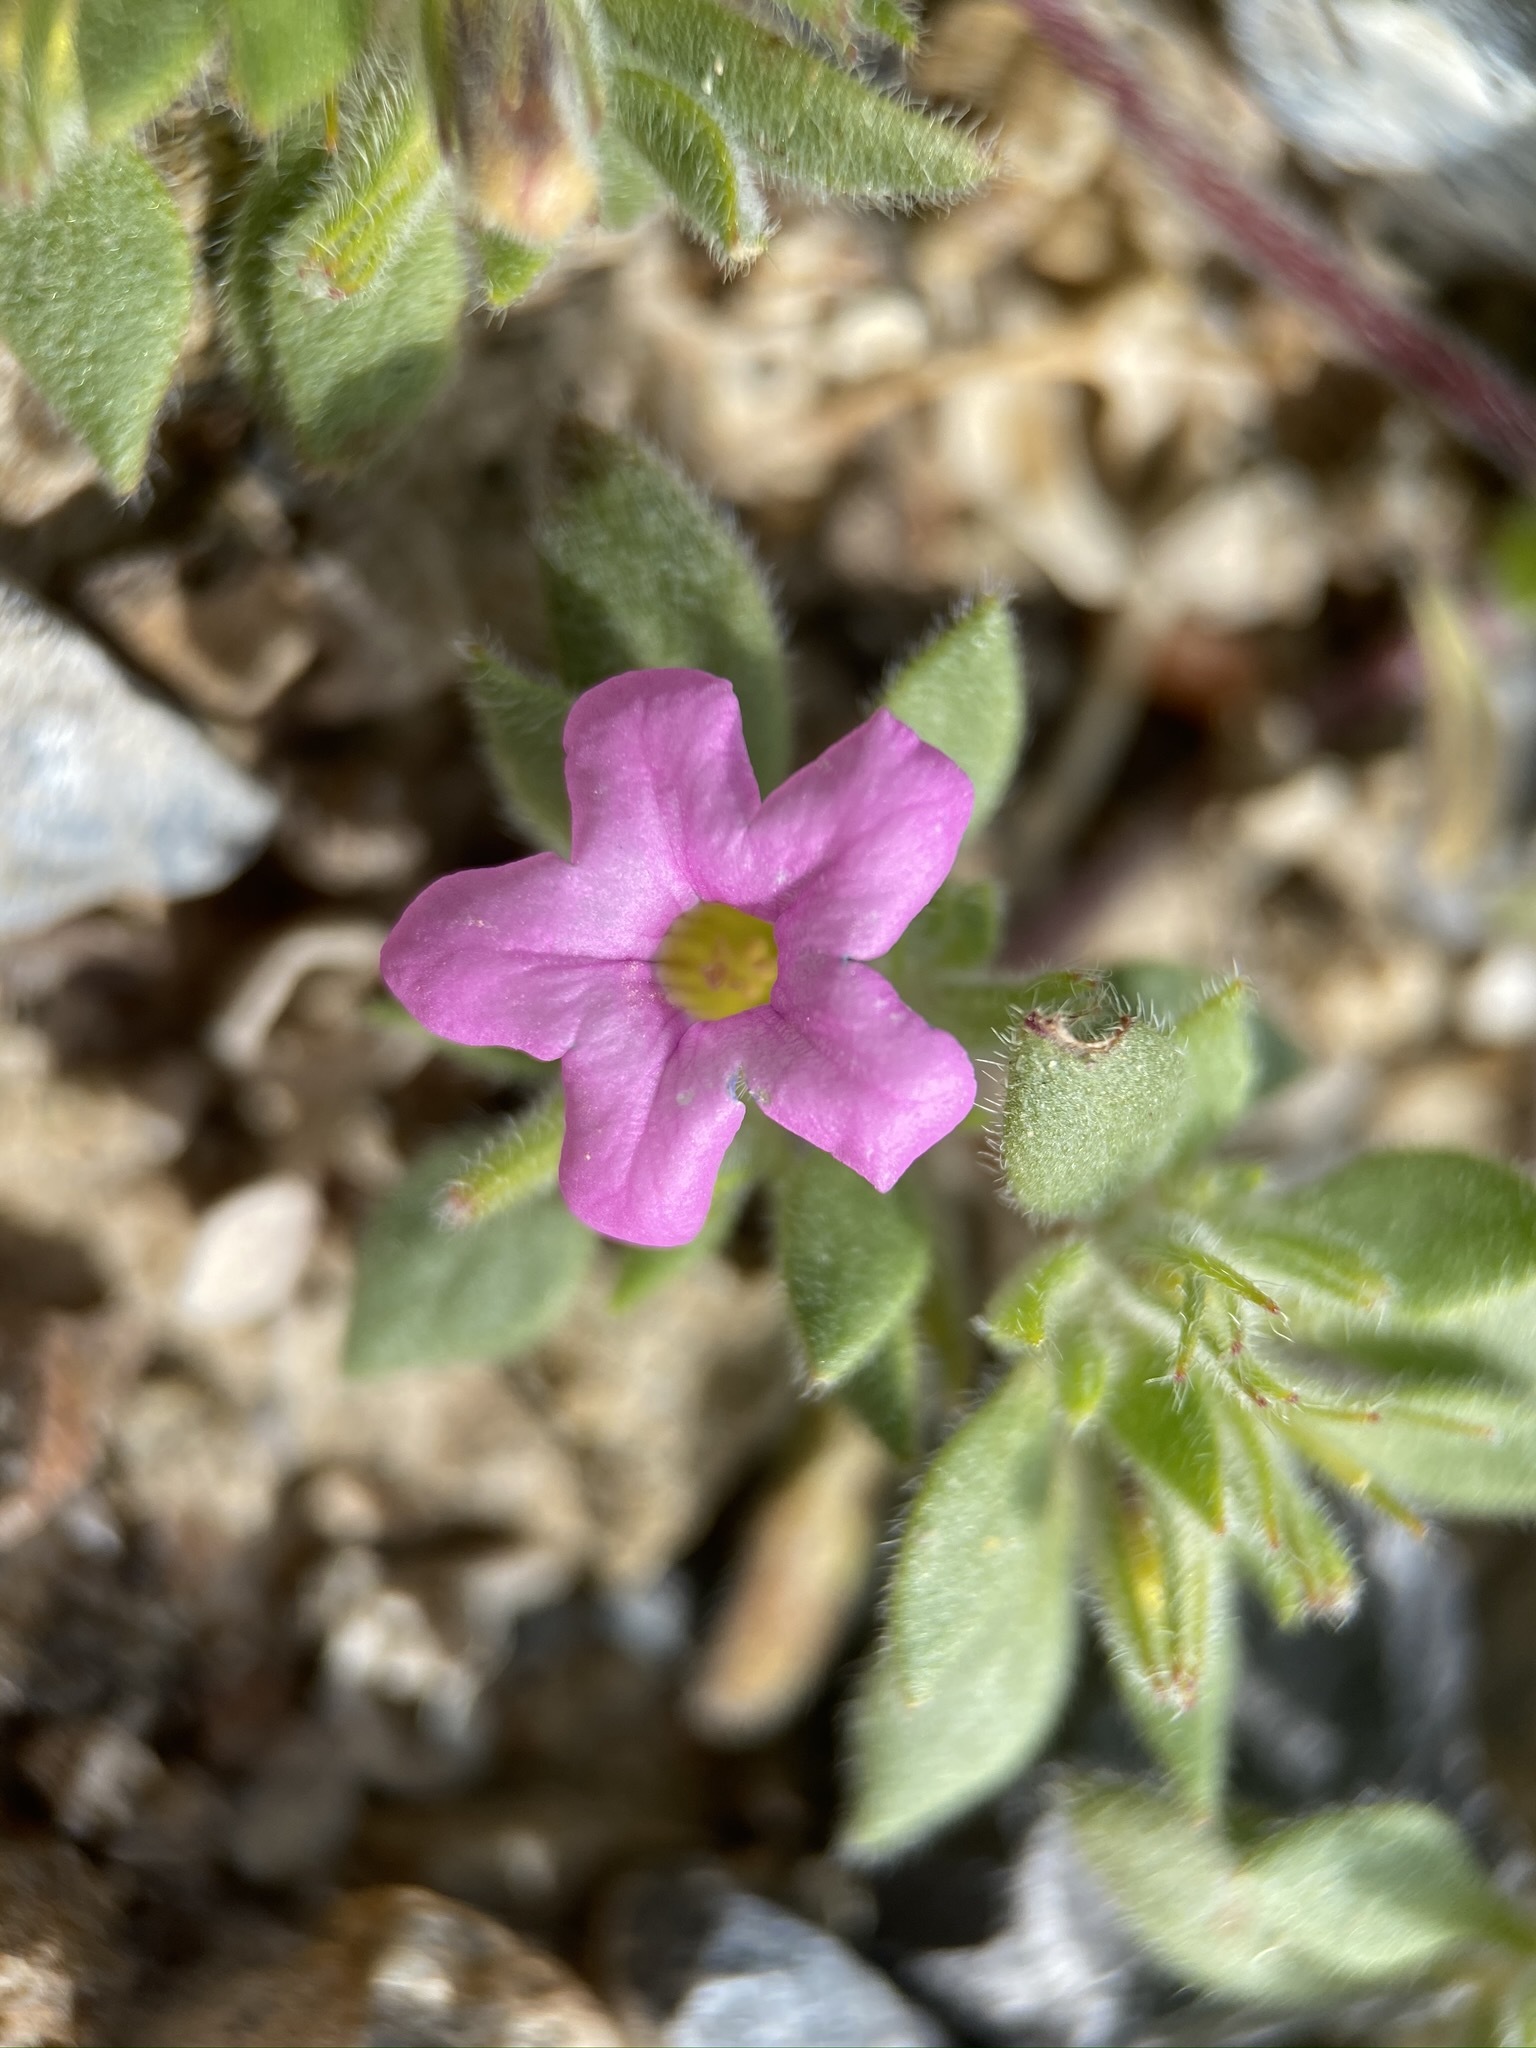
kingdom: Plantae
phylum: Tracheophyta
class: Magnoliopsida
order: Boraginales
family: Namaceae
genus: Nama
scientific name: Nama demissa
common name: Leafy nama
